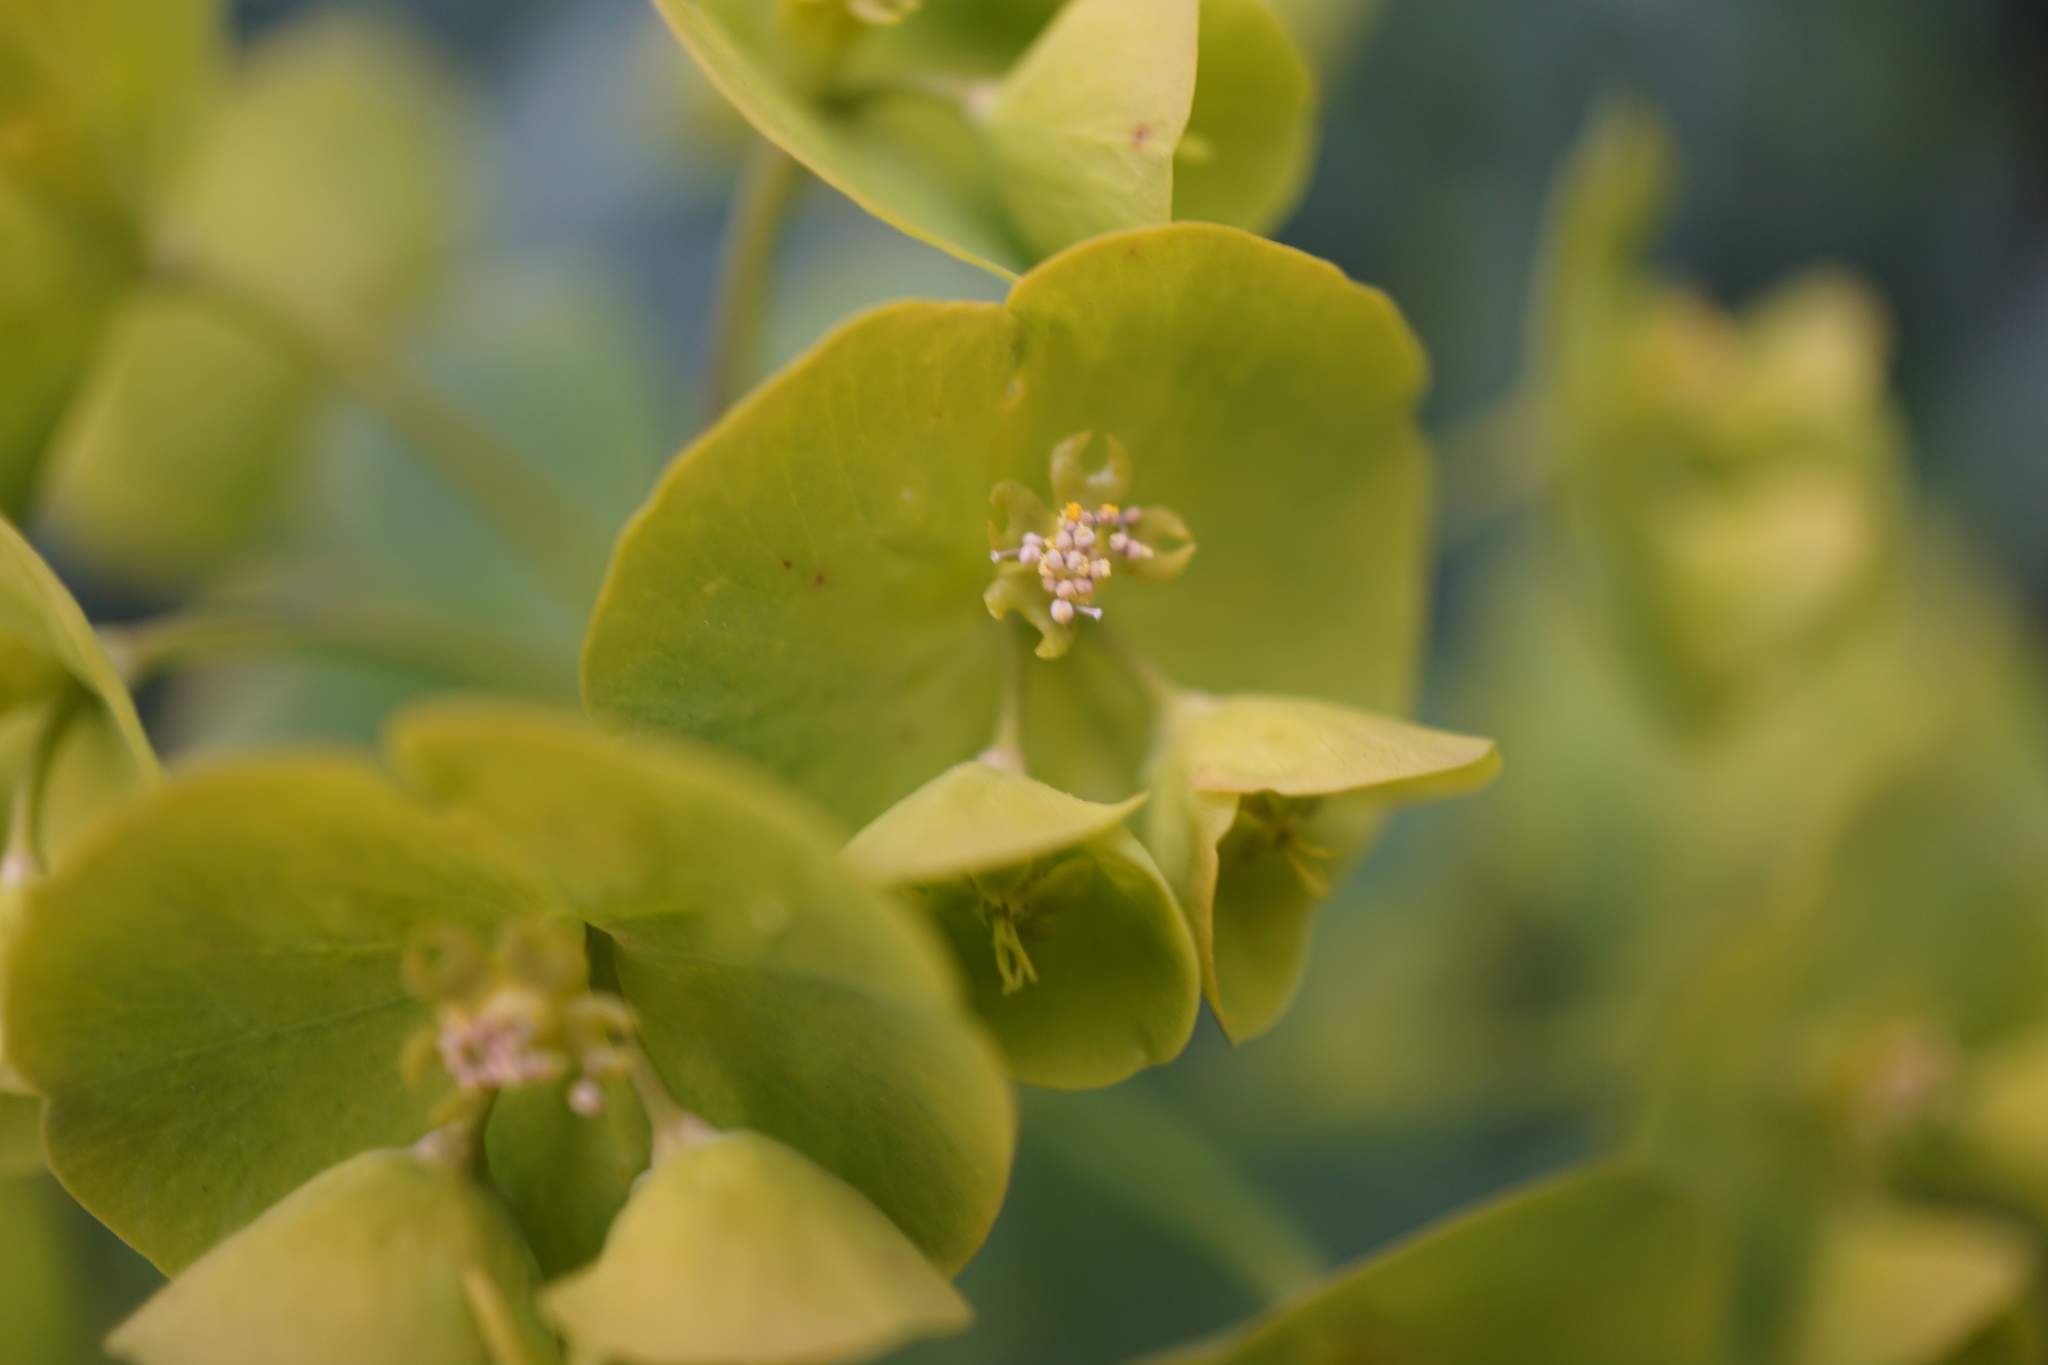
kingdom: Plantae
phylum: Tracheophyta
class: Magnoliopsida
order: Malpighiales
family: Euphorbiaceae
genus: Euphorbia
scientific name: Euphorbia amygdaloides
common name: Wood spurge
